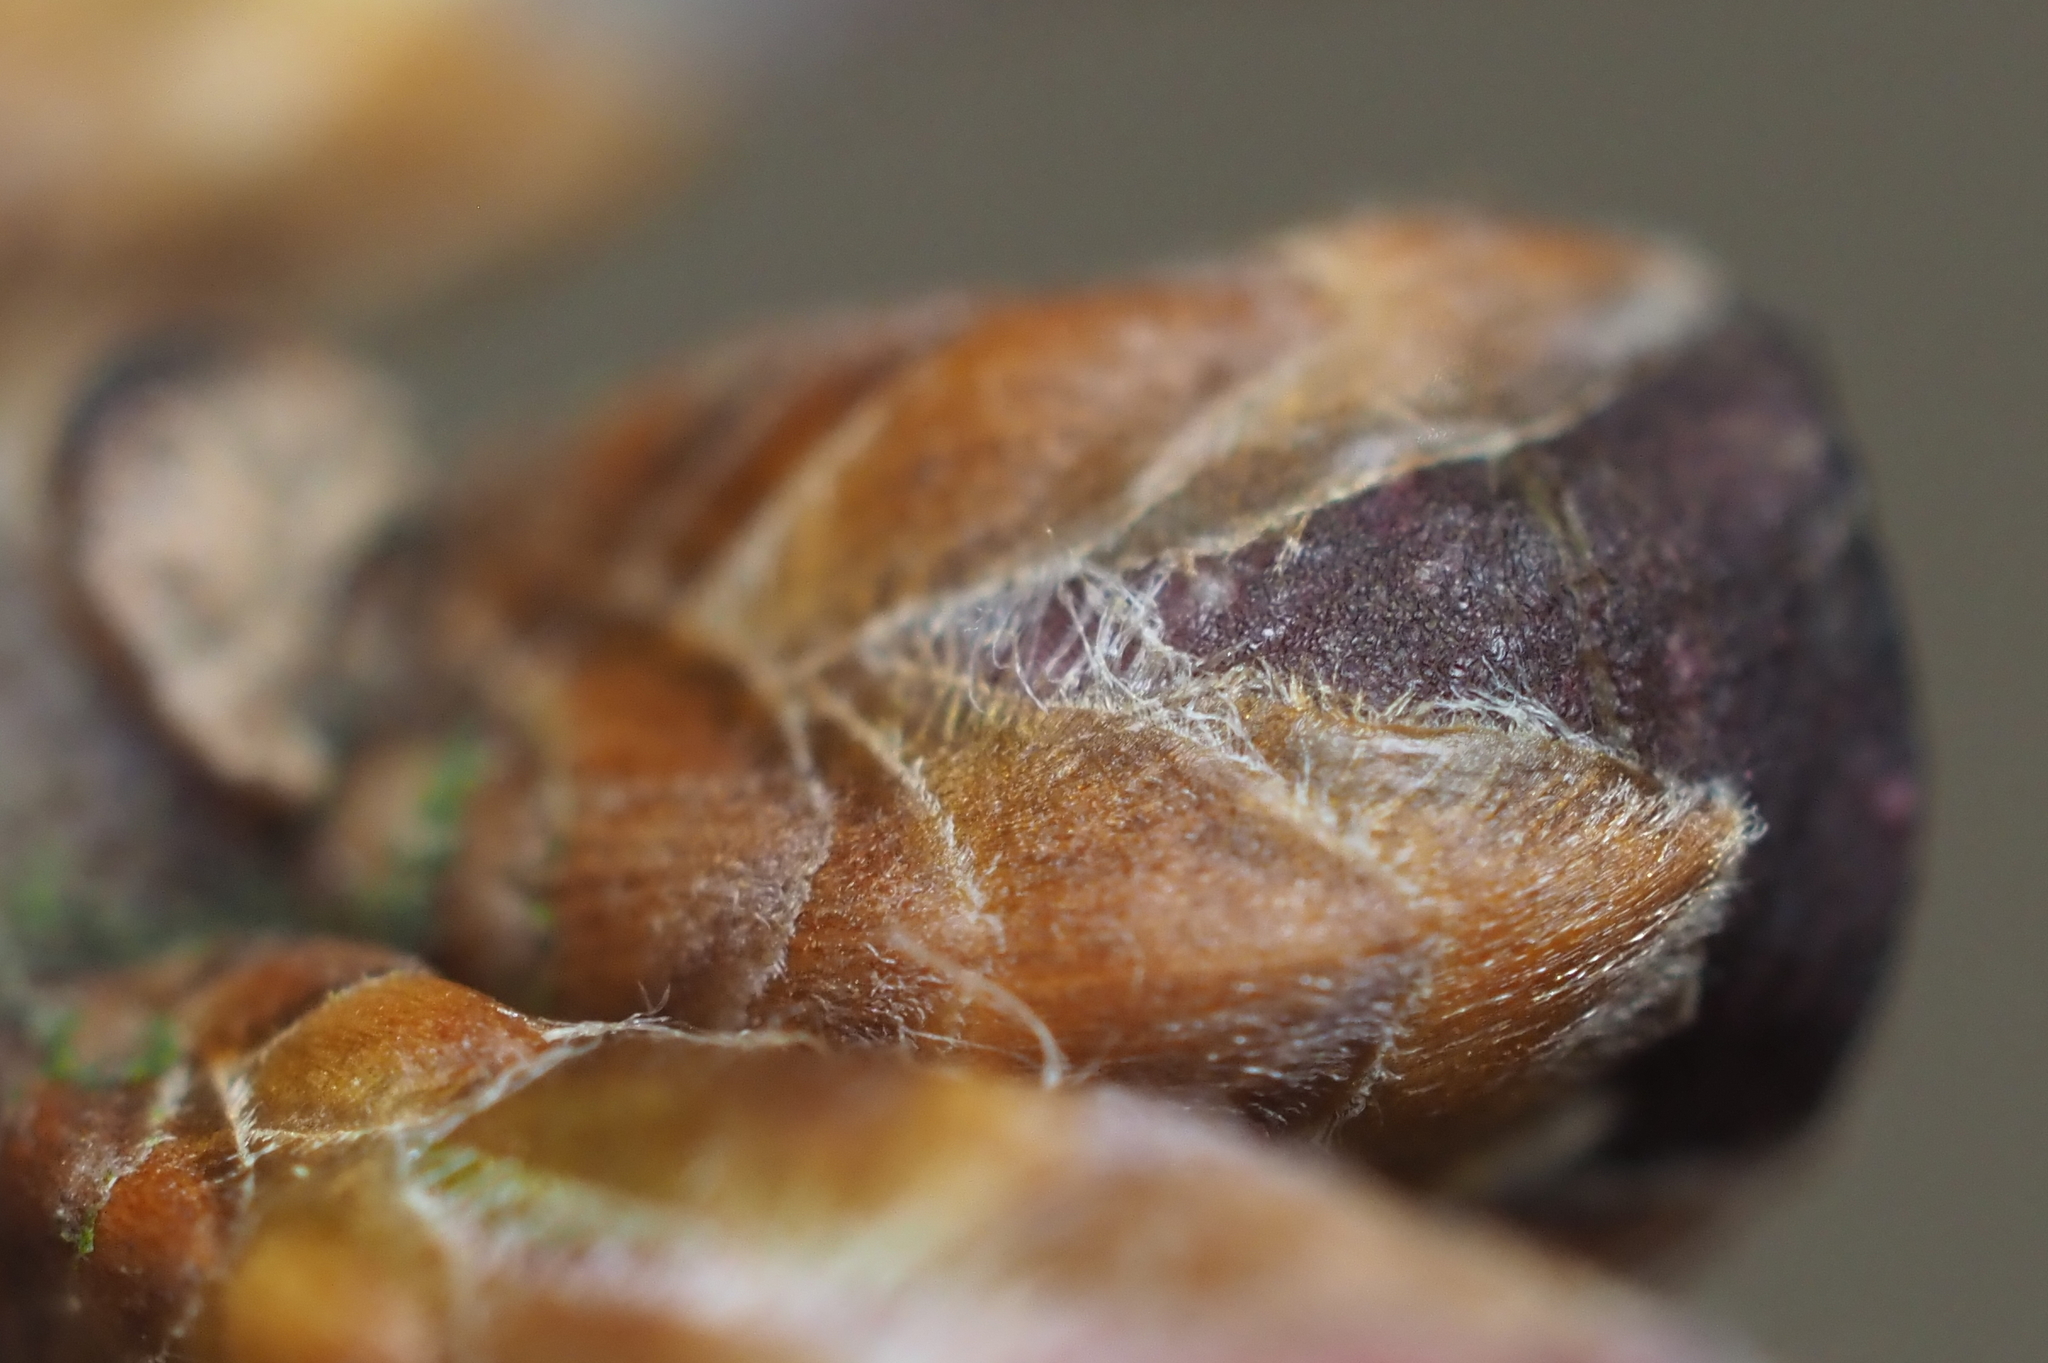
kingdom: Animalia
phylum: Arthropoda
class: Insecta
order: Hymenoptera
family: Cynipidae
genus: Neuroterus
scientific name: Neuroterus
